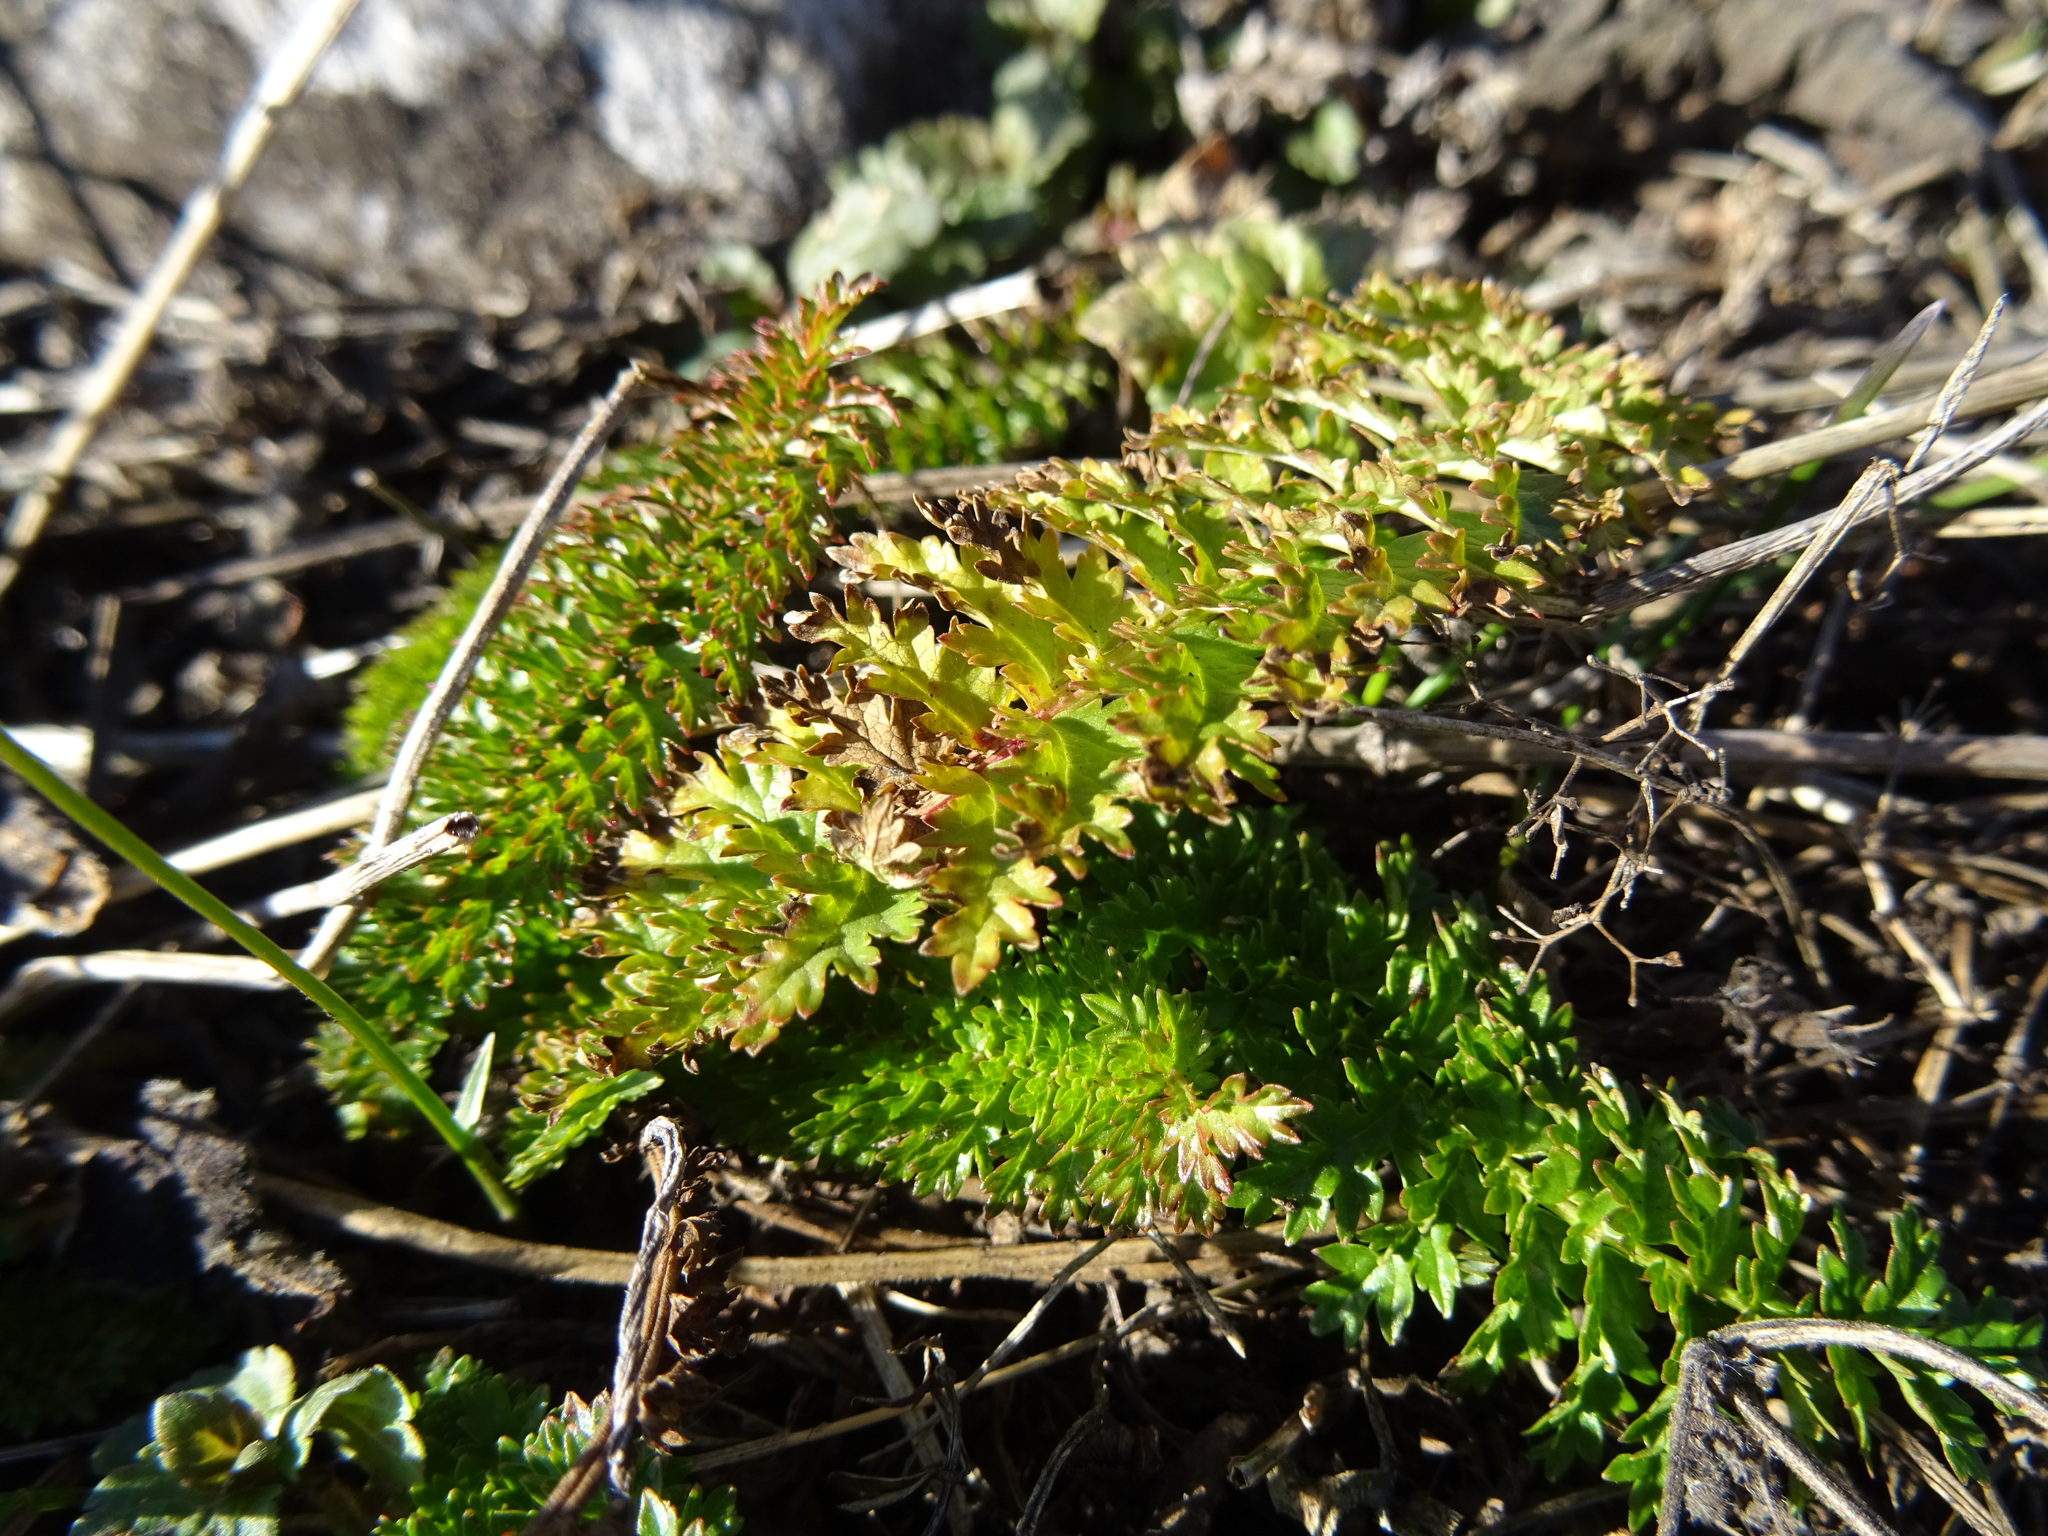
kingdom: Plantae
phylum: Tracheophyta
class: Magnoliopsida
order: Rosales
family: Rosaceae
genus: Filipendula
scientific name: Filipendula vulgaris
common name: Dropwort
